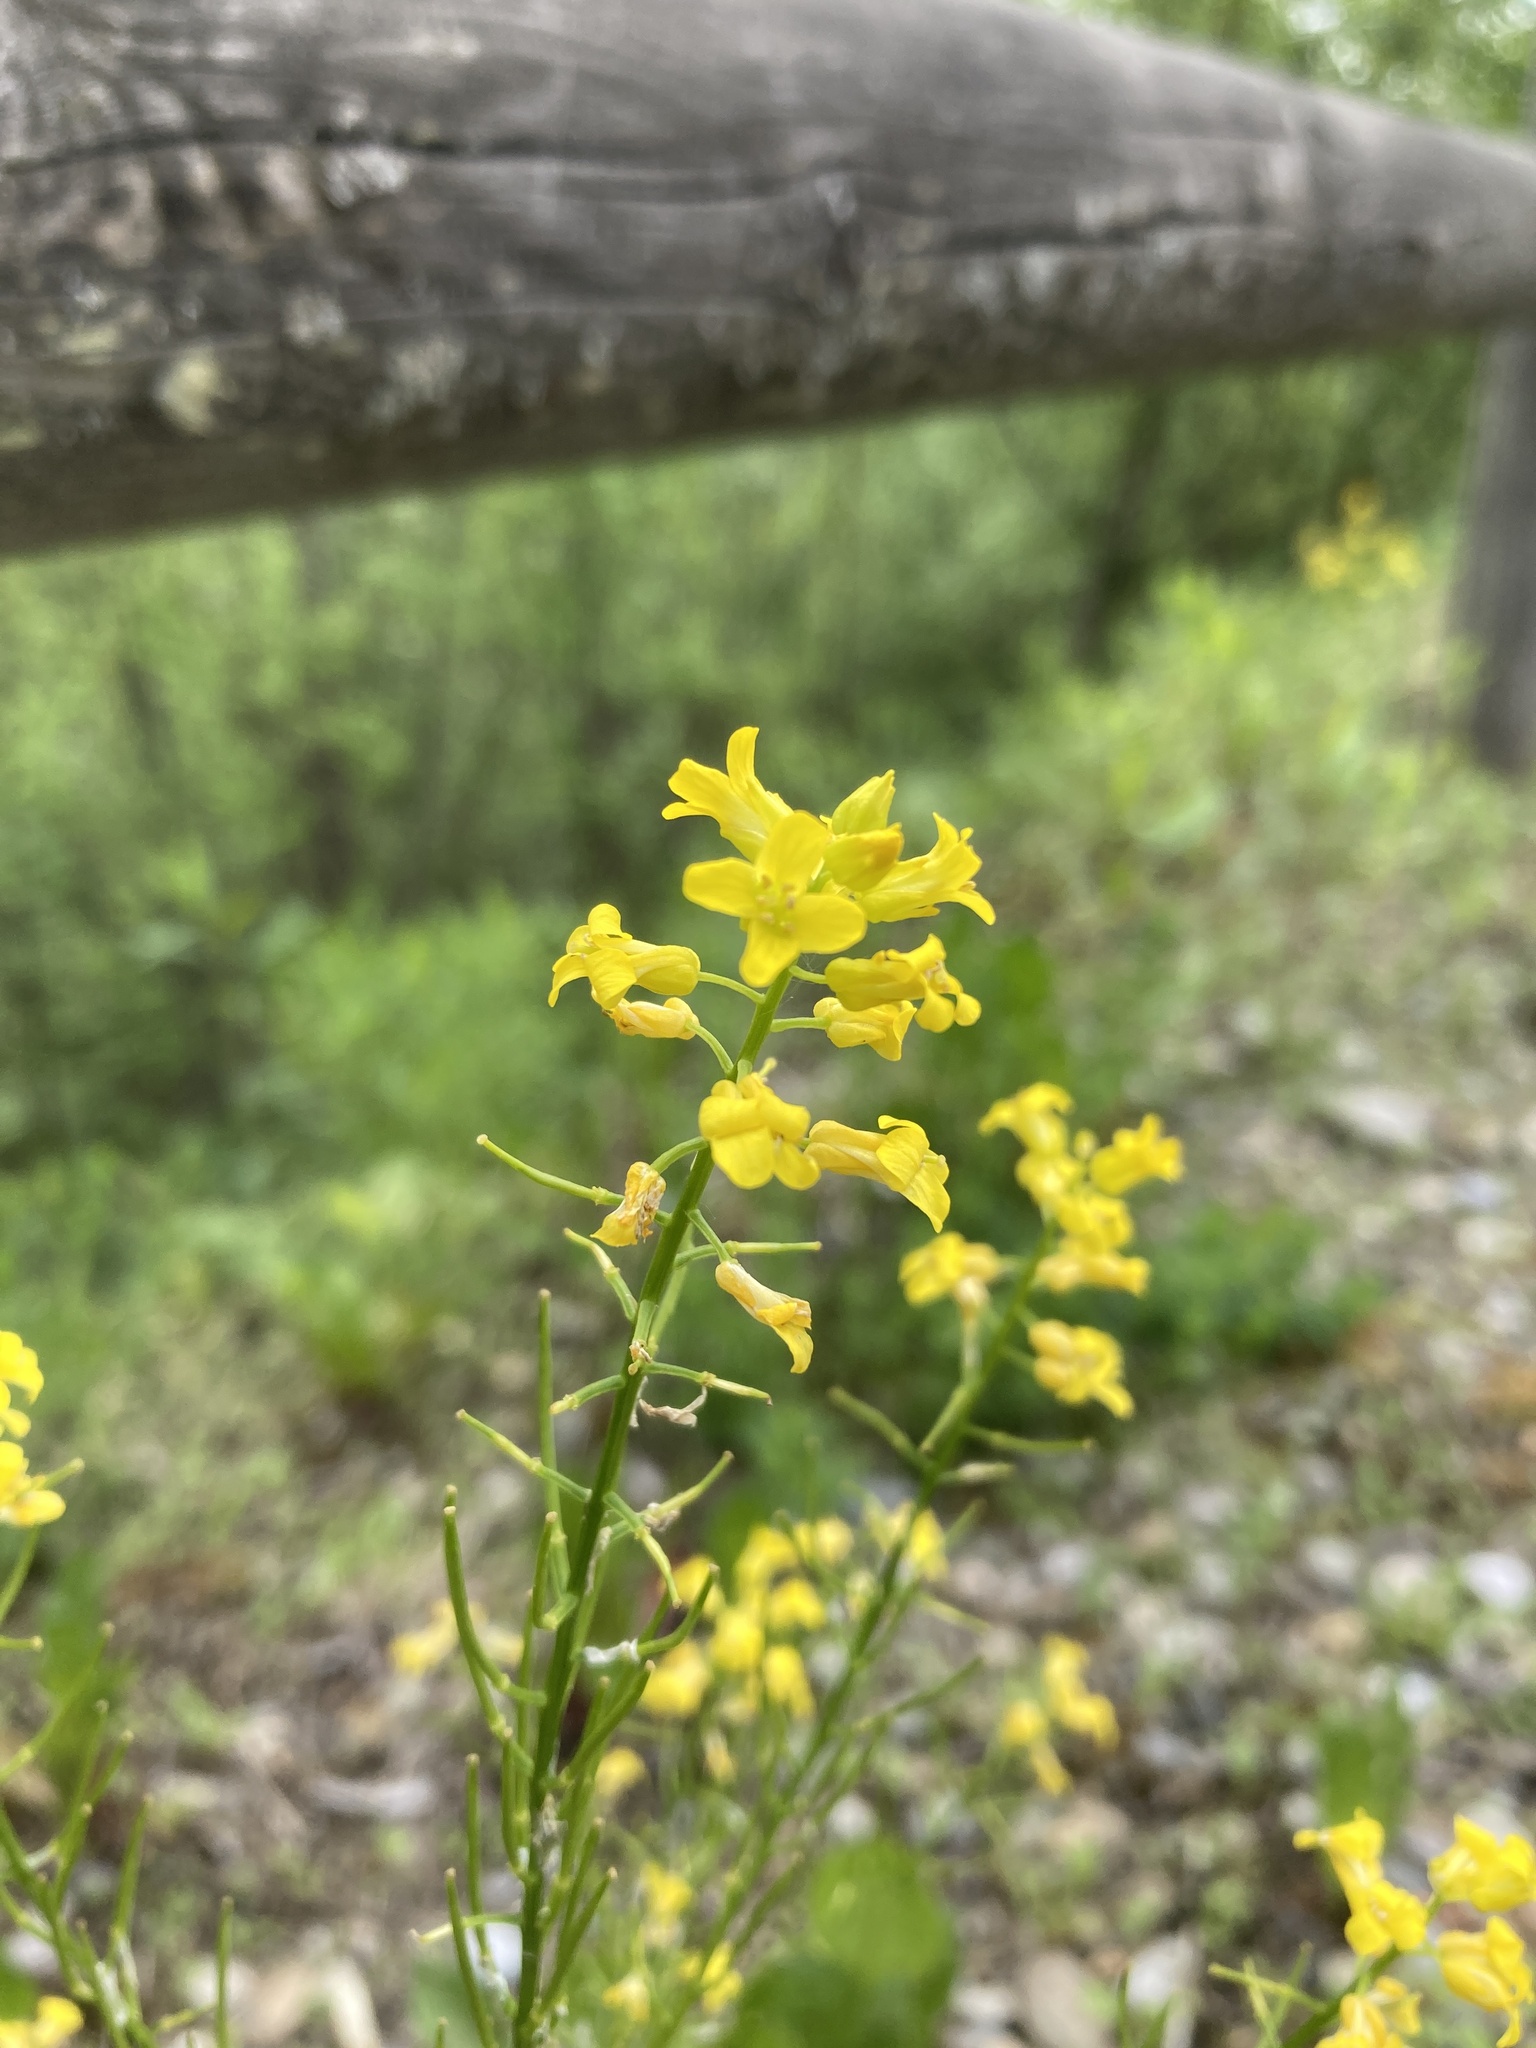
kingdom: Plantae
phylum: Tracheophyta
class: Magnoliopsida
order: Brassicales
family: Brassicaceae
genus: Barbarea
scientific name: Barbarea vulgaris
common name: Cressy-greens
